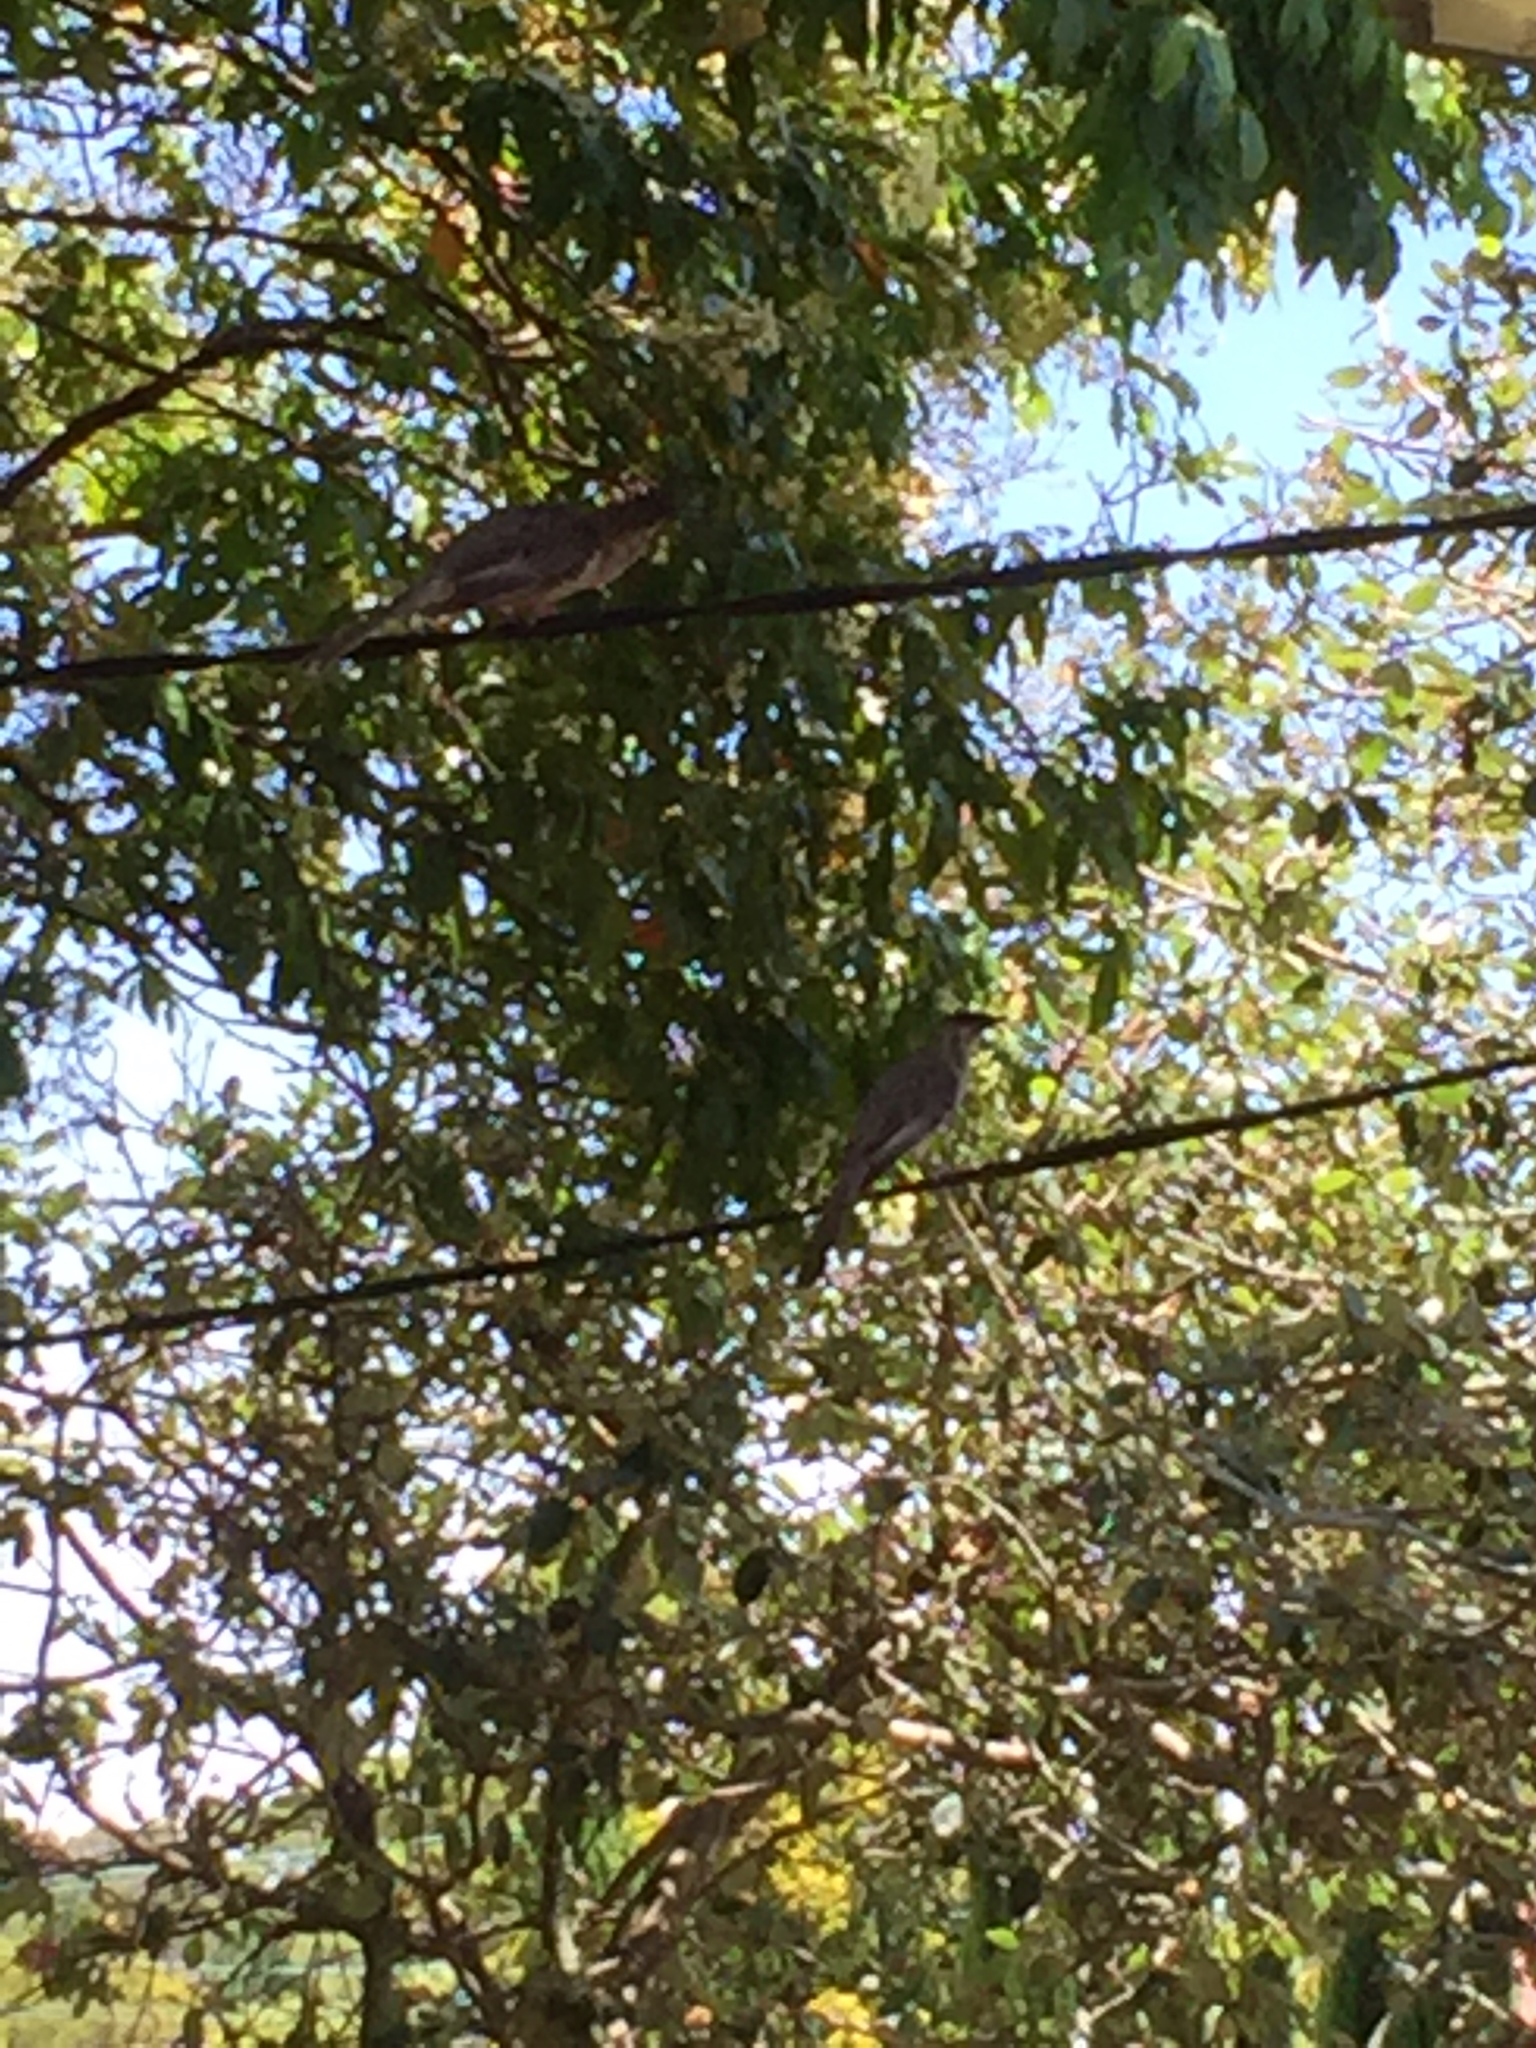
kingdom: Animalia
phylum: Chordata
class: Aves
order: Passeriformes
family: Meliphagidae
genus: Anthochaera
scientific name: Anthochaera carunculata
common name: Red wattlebird
